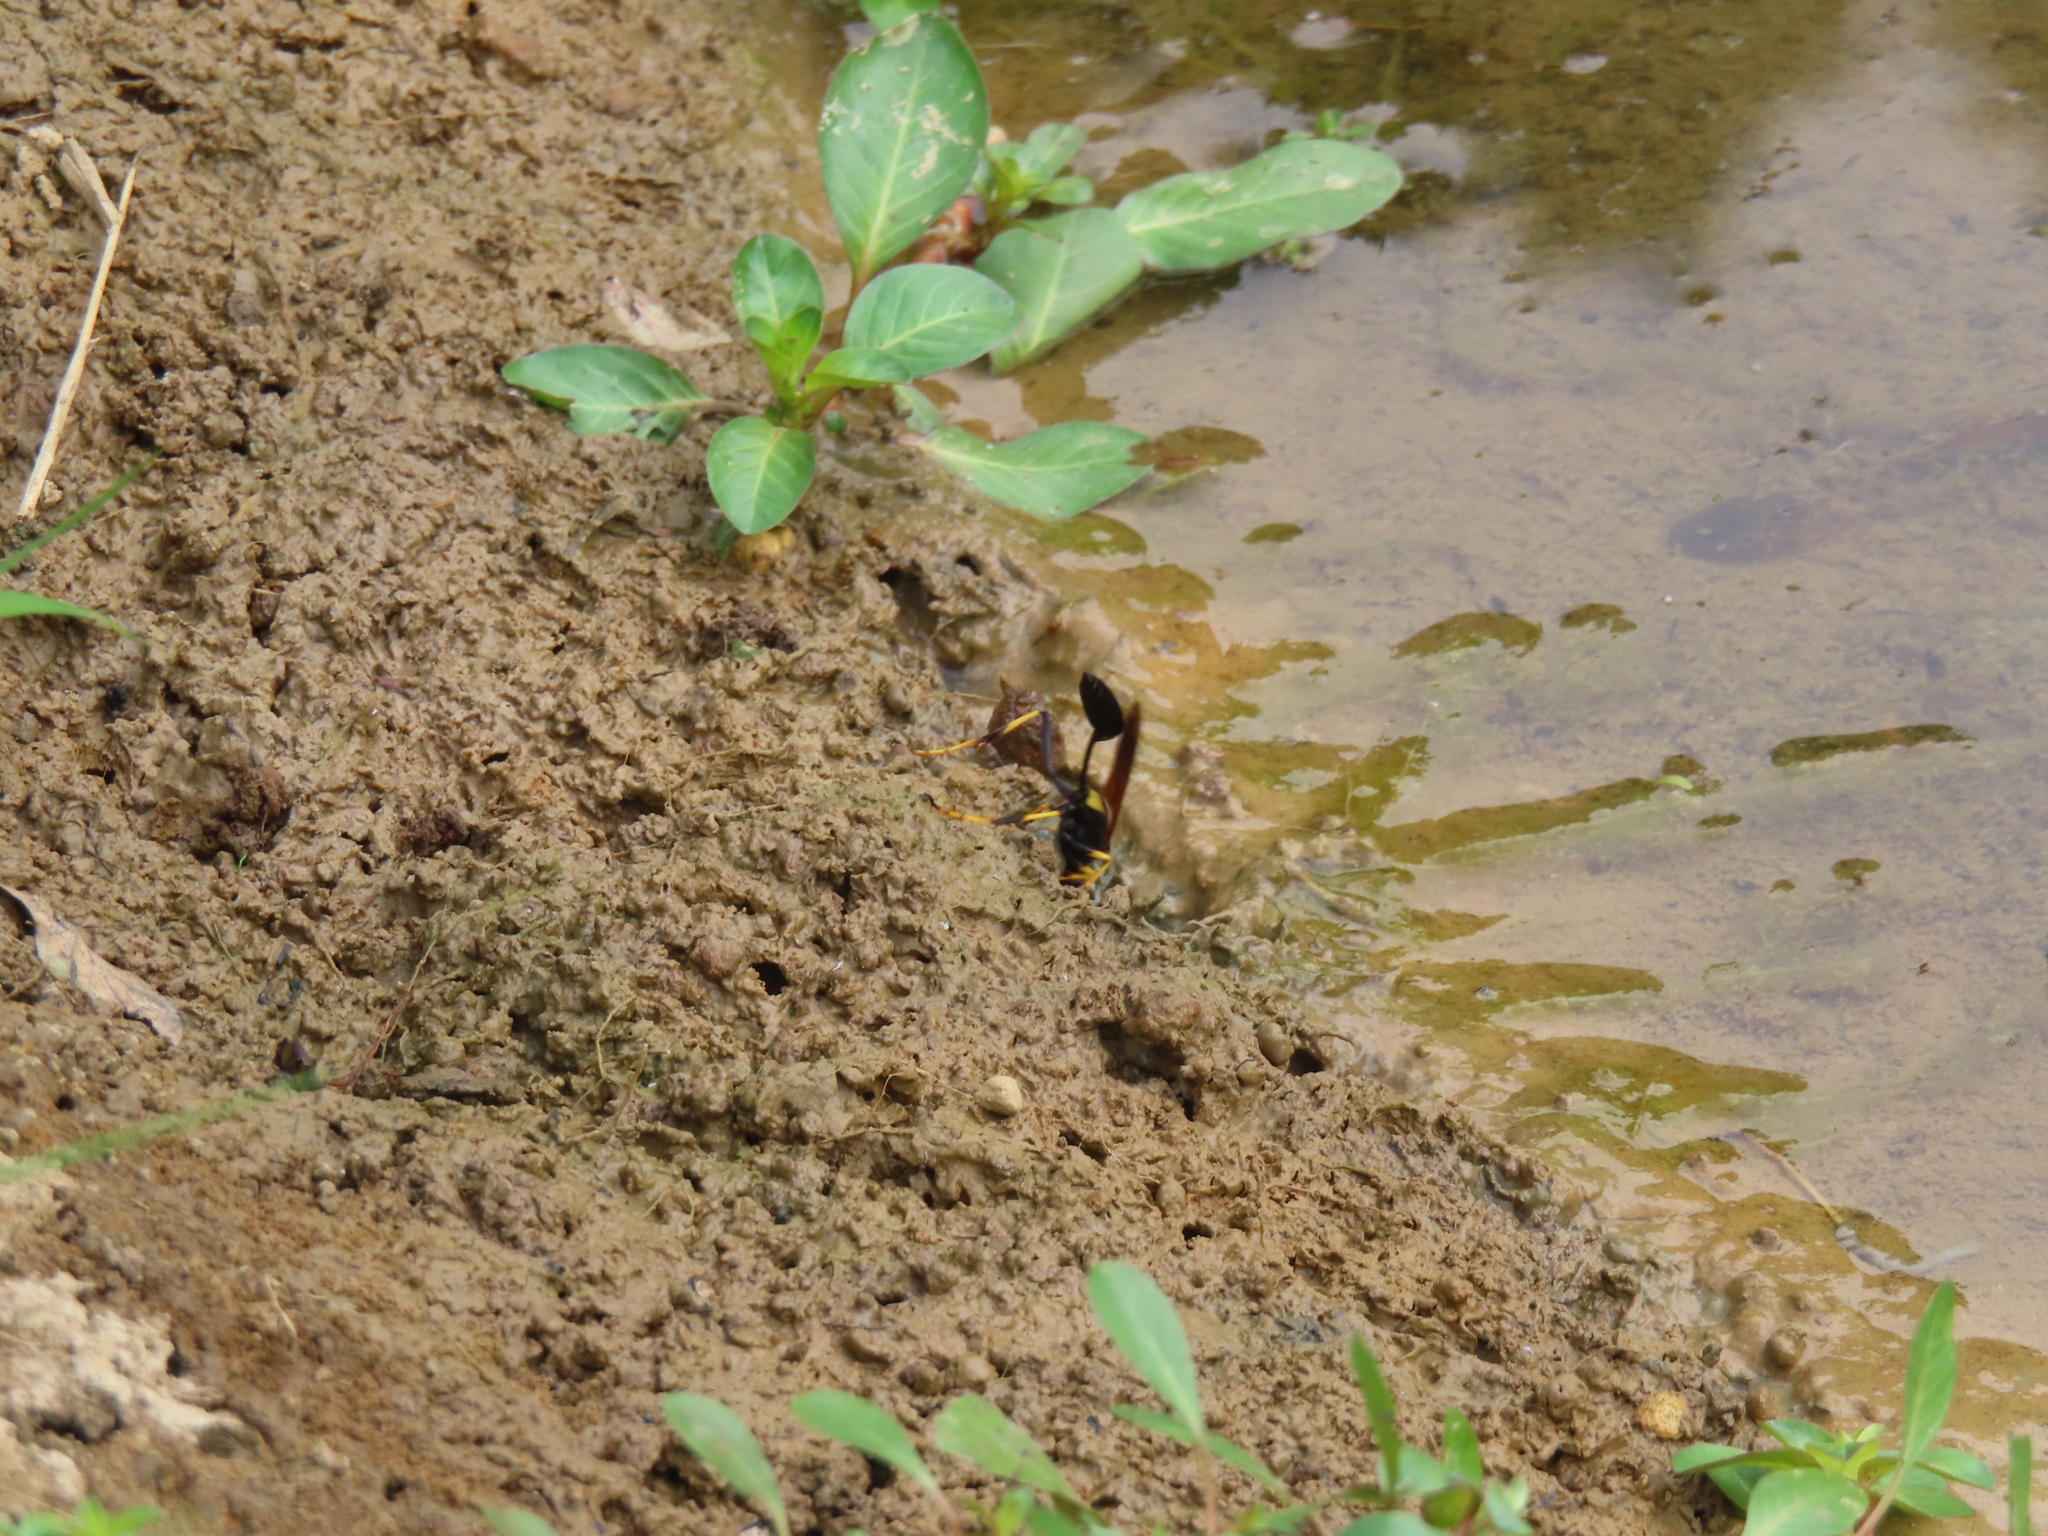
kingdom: Animalia
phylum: Arthropoda
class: Insecta
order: Hymenoptera
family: Sphecidae
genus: Sceliphron
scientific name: Sceliphron caementarium
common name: Mud dauber
